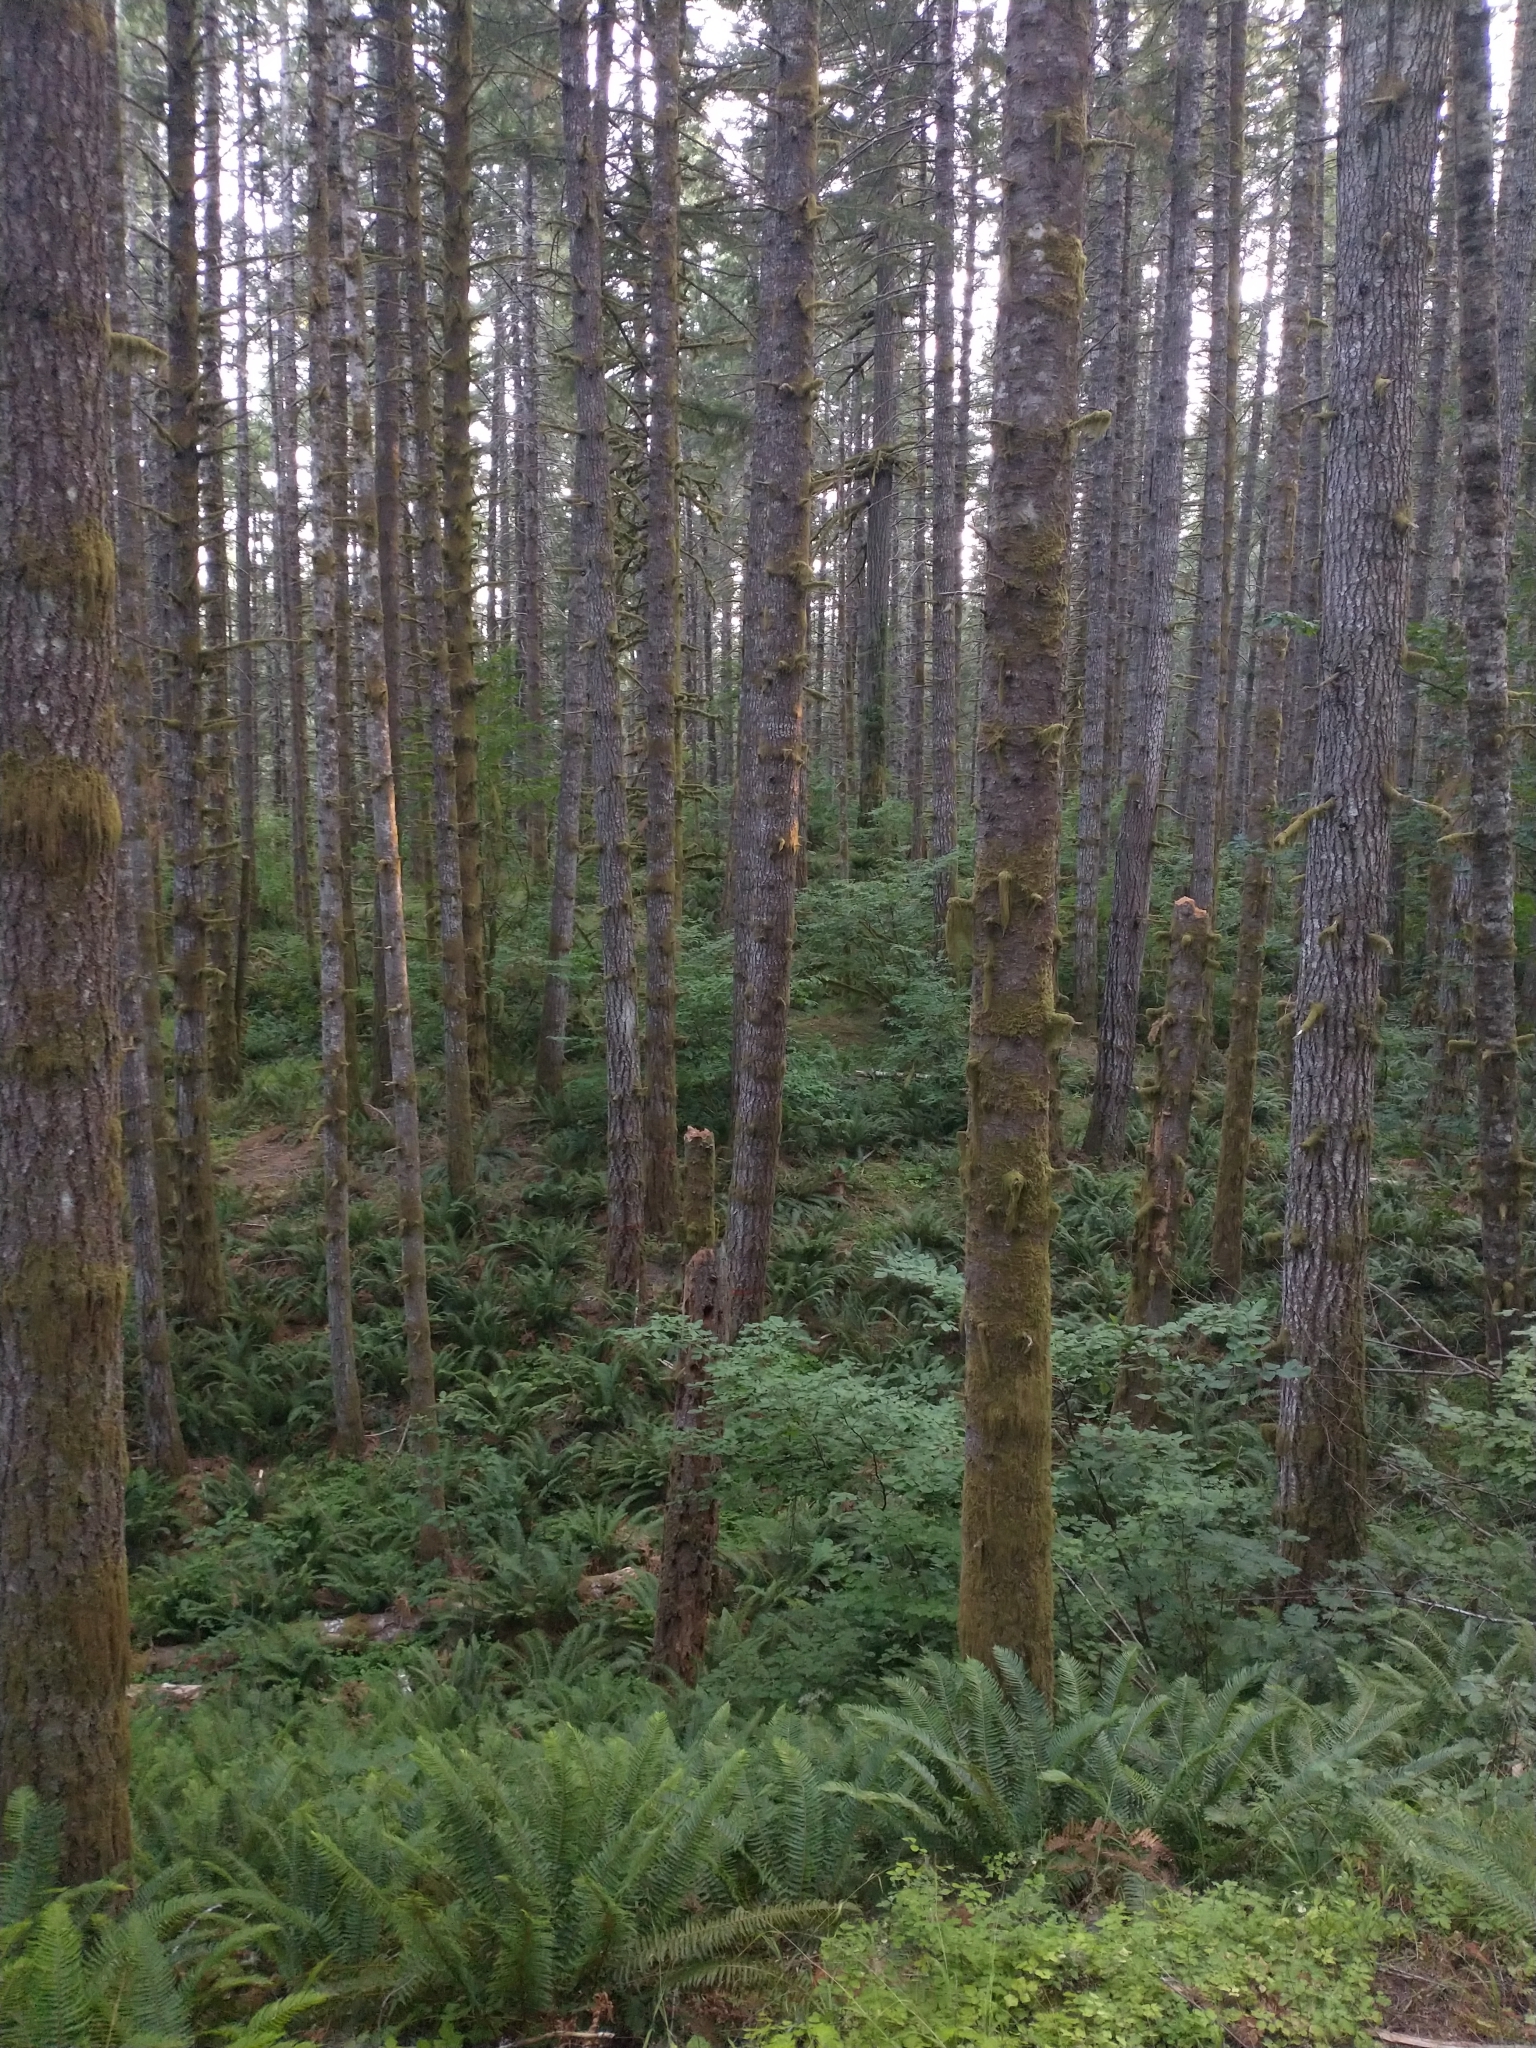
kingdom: Plantae
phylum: Tracheophyta
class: Polypodiopsida
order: Polypodiales
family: Dryopteridaceae
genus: Polystichum
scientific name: Polystichum munitum
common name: Western sword-fern
